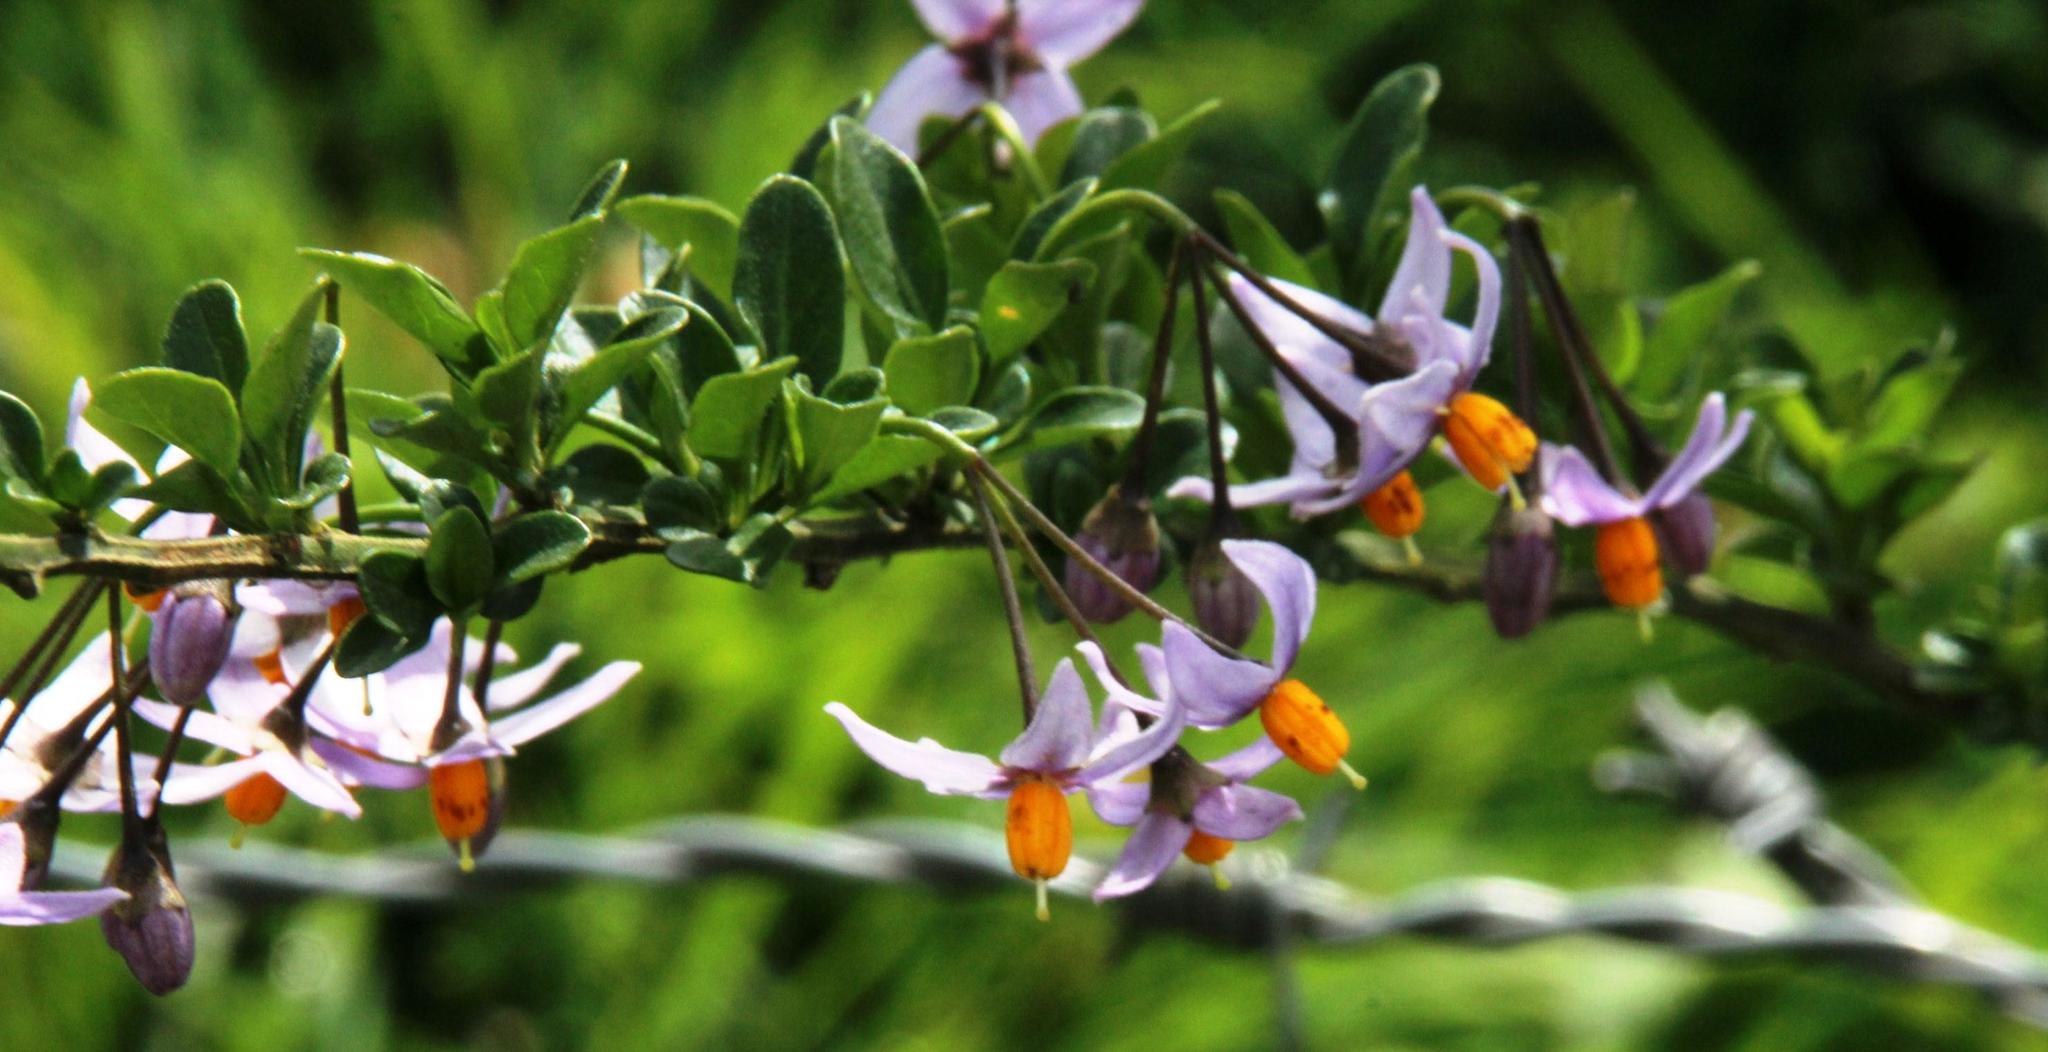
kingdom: Plantae
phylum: Tracheophyta
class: Magnoliopsida
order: Solanales
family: Solanaceae
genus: Solanum
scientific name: Solanum valdiviense
